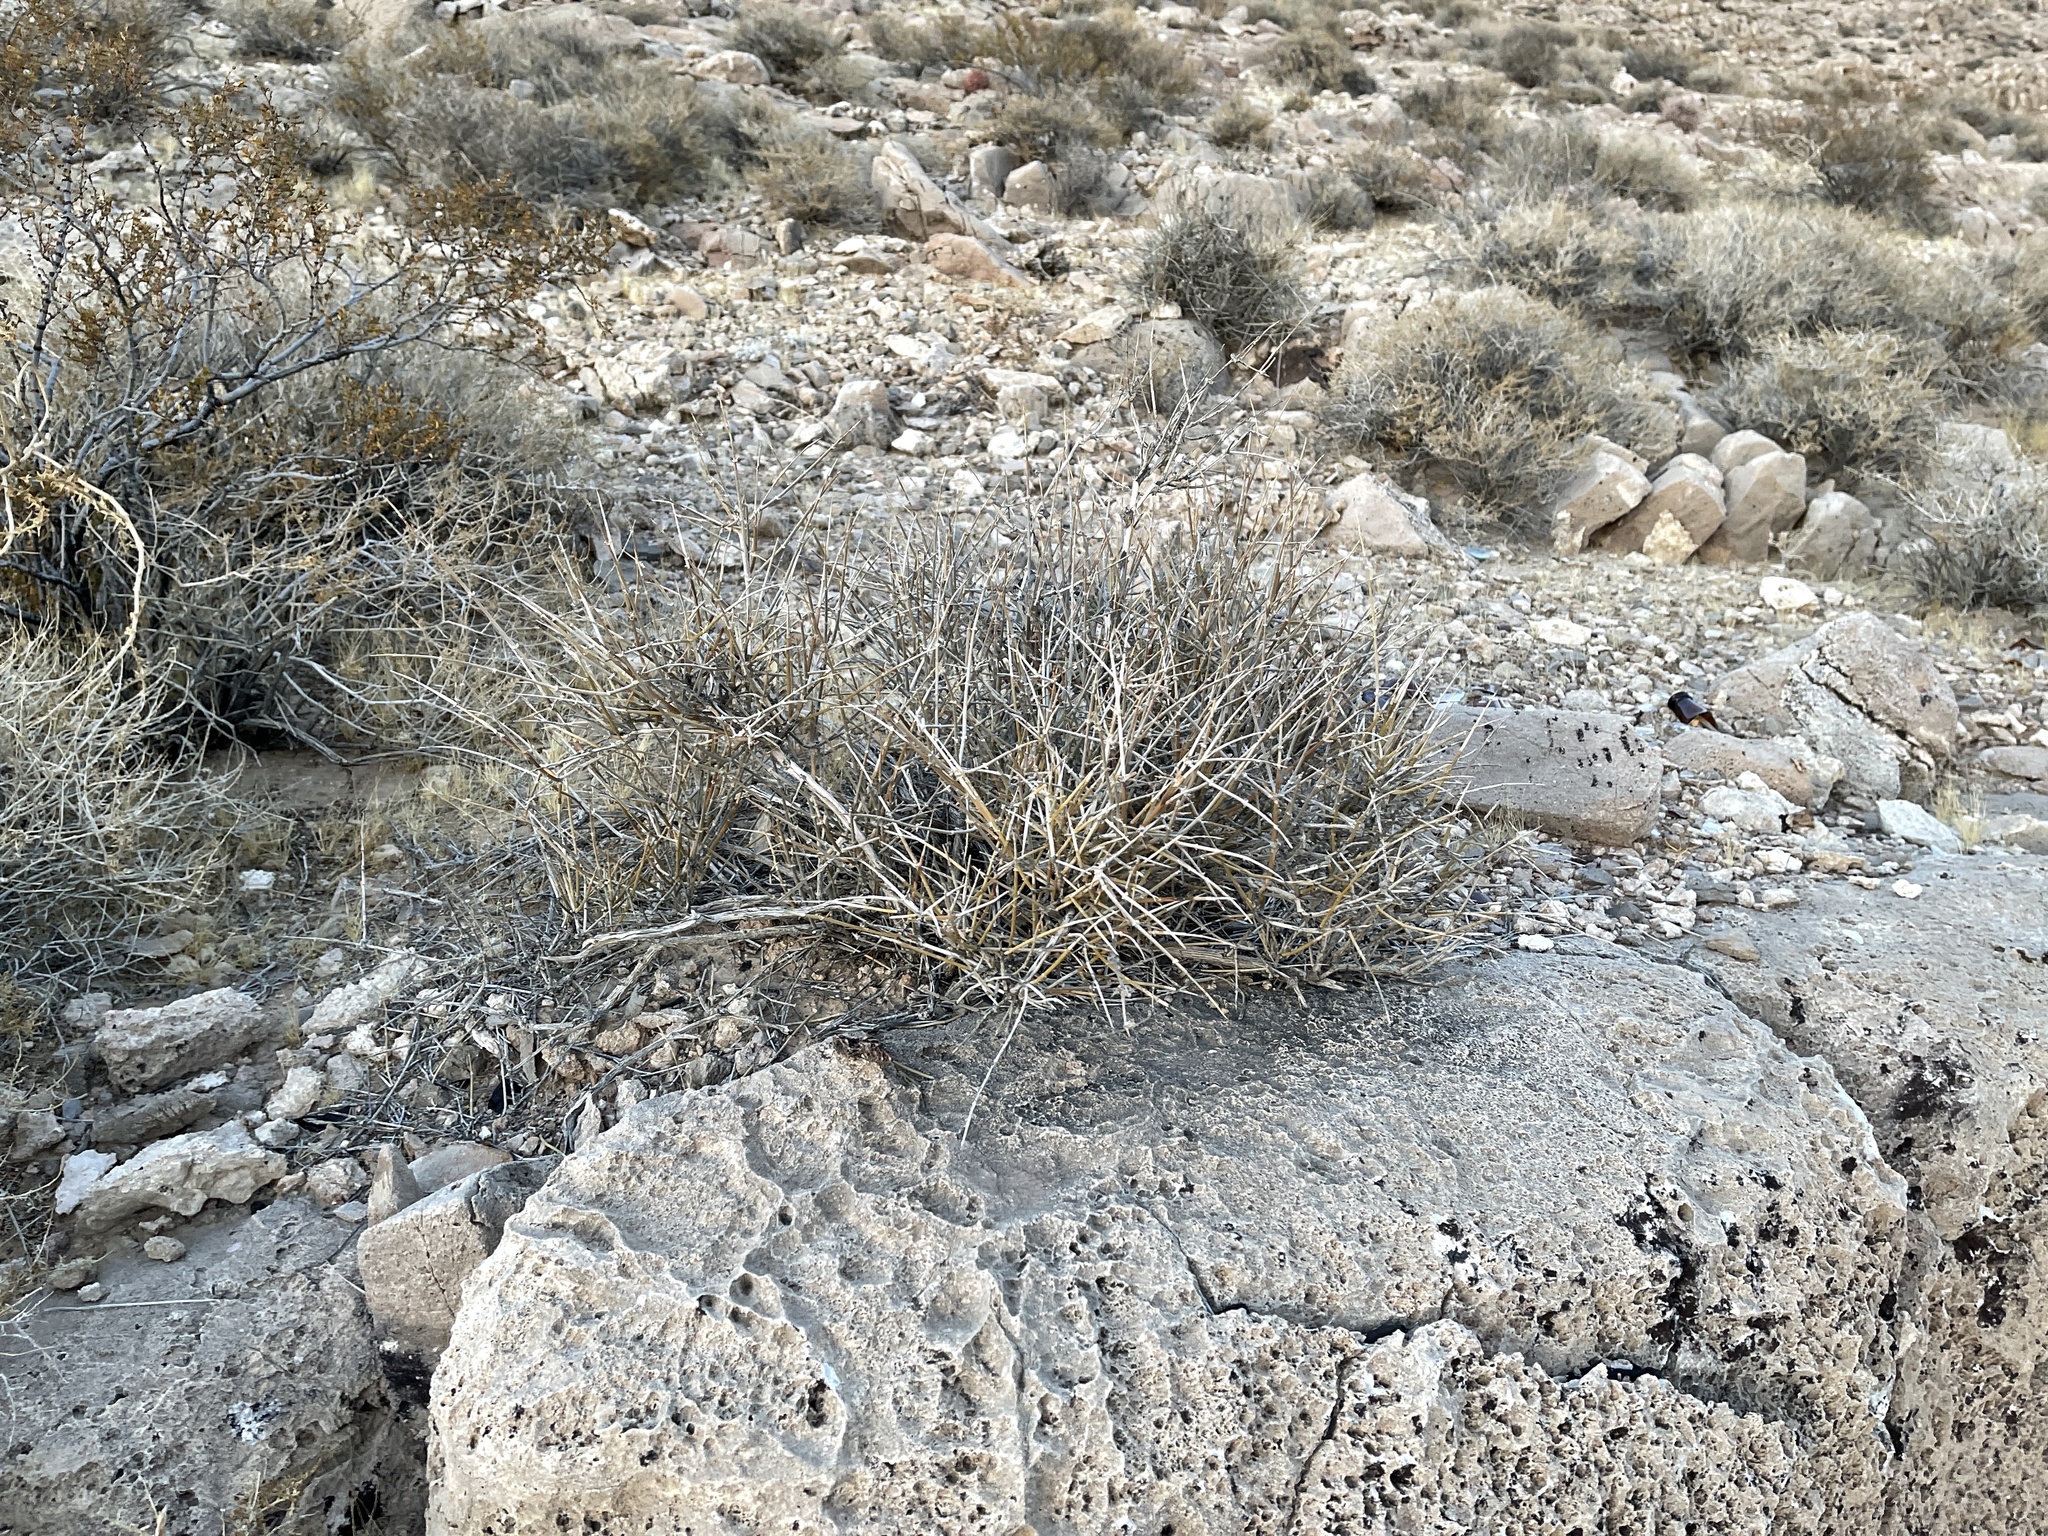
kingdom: Plantae
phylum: Tracheophyta
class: Gnetopsida
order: Ephedrales
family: Ephedraceae
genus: Ephedra
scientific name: Ephedra nevadensis
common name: Gray ephedra
